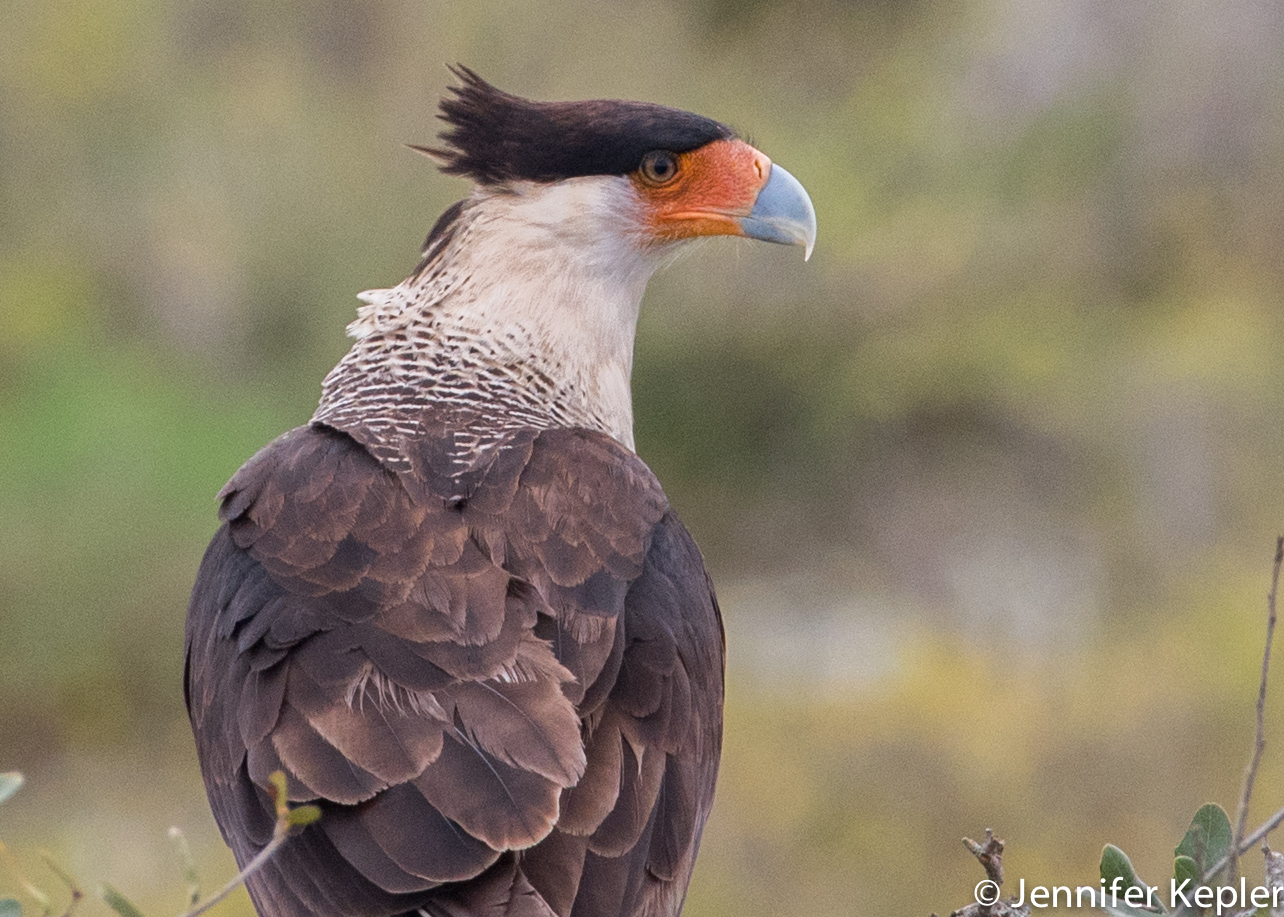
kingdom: Animalia
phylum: Chordata
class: Aves
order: Falconiformes
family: Falconidae
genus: Caracara
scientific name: Caracara plancus
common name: Southern caracara
